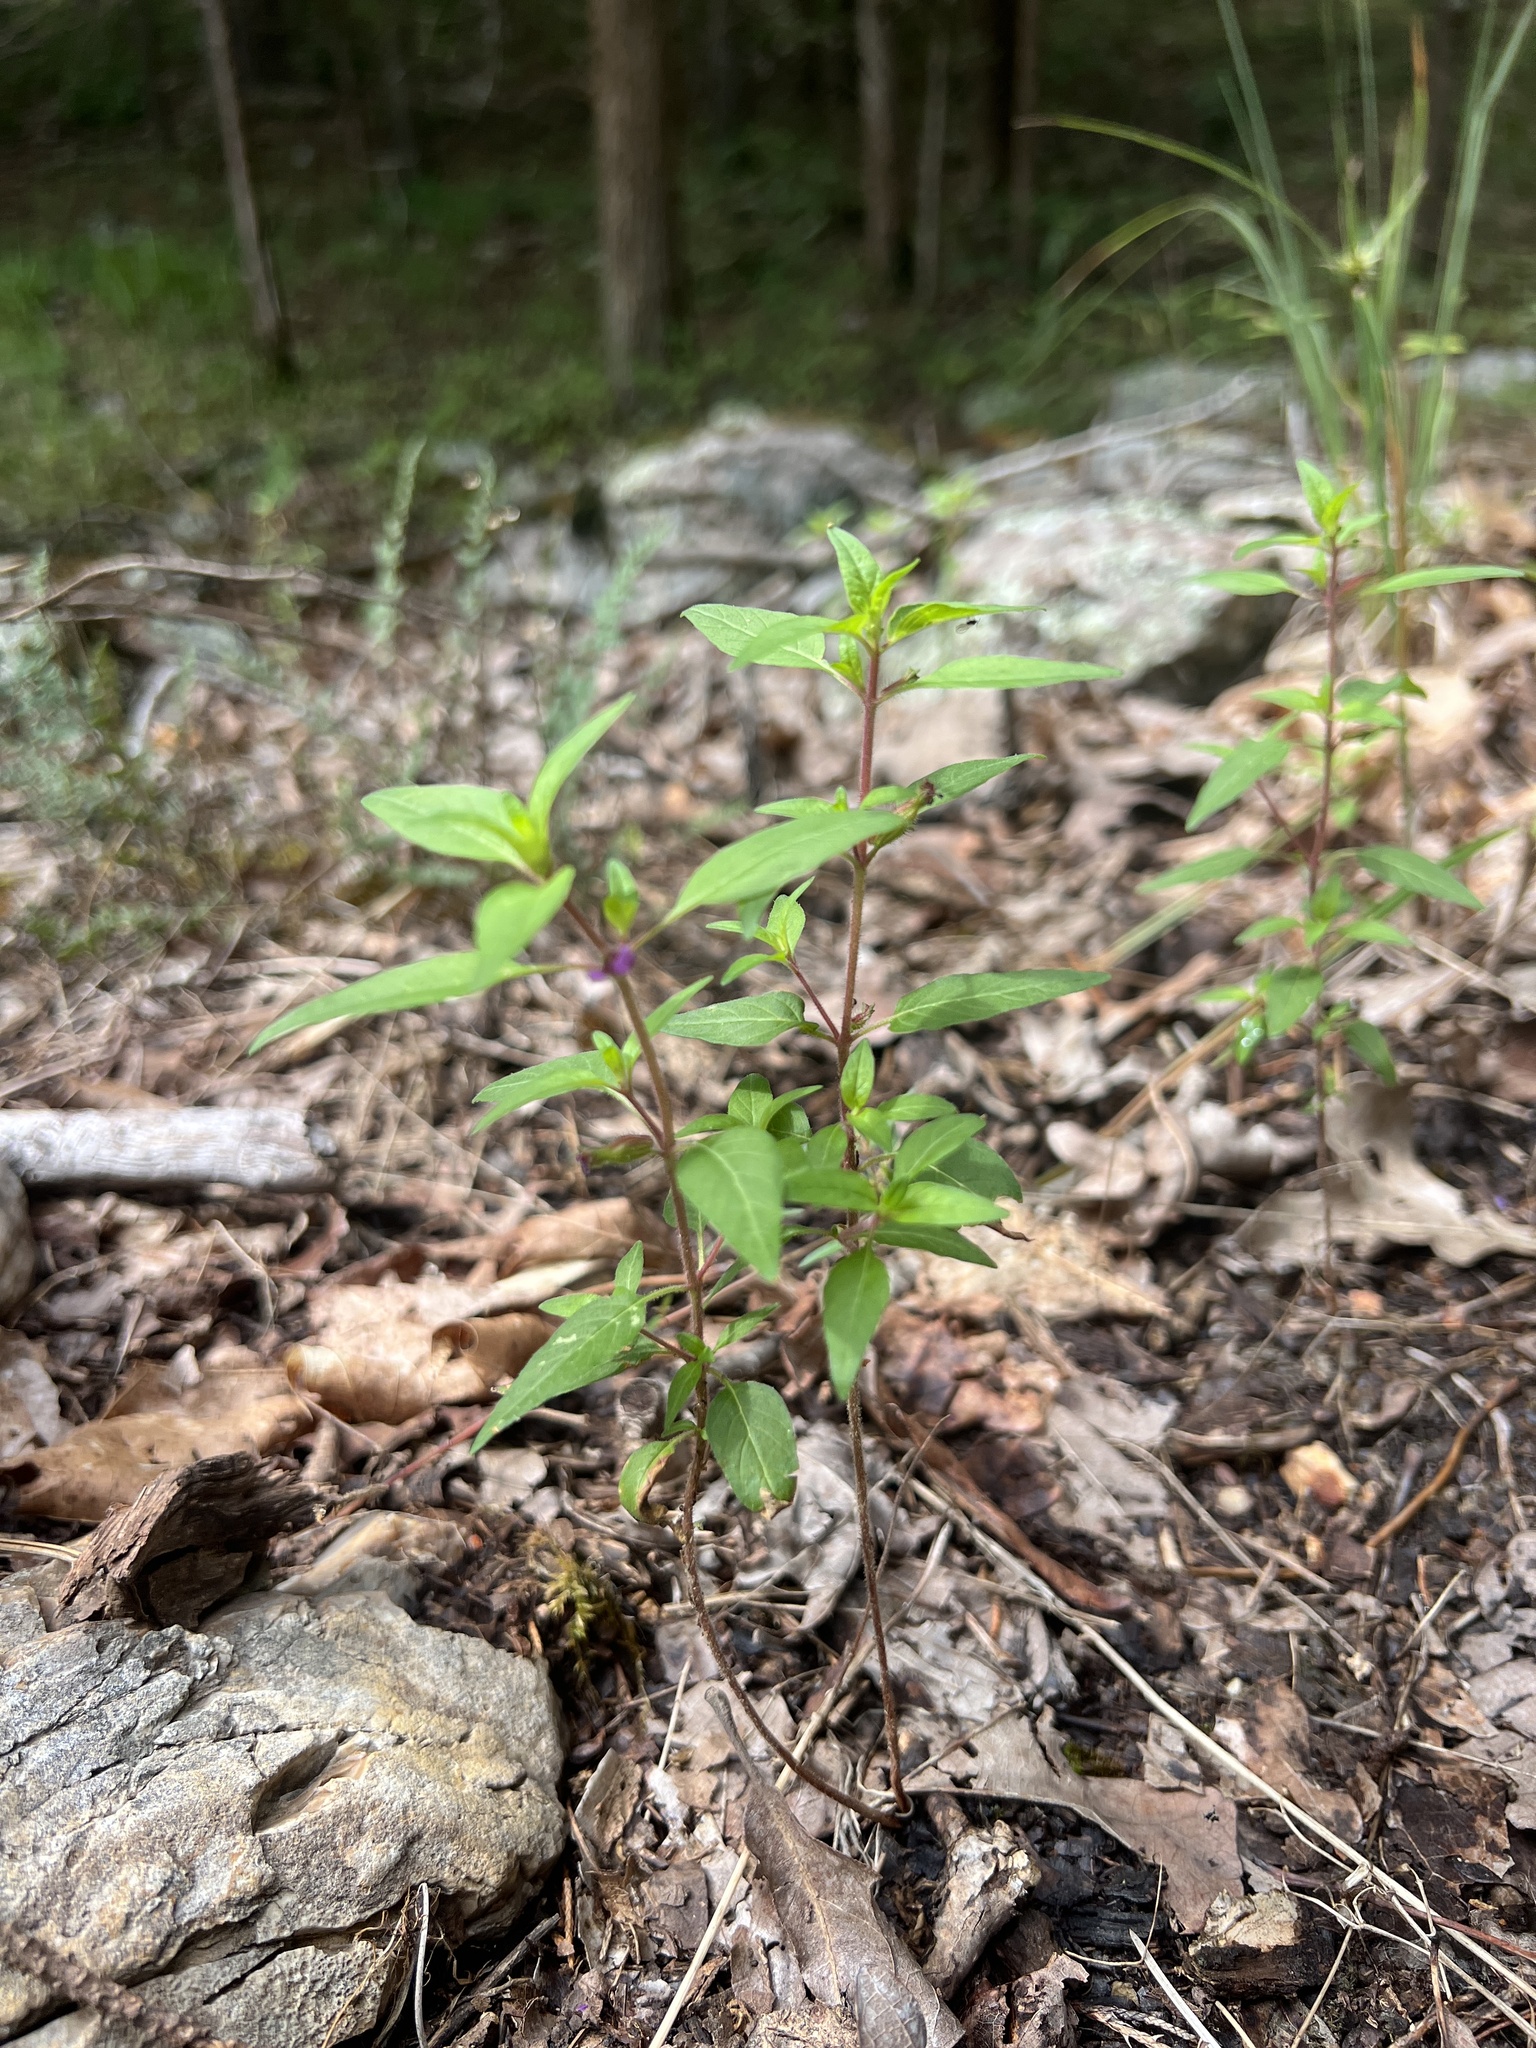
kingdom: Plantae
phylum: Tracheophyta
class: Magnoliopsida
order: Myrtales
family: Lythraceae
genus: Cuphea
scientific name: Cuphea viscosissima
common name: Clammy cuphea
